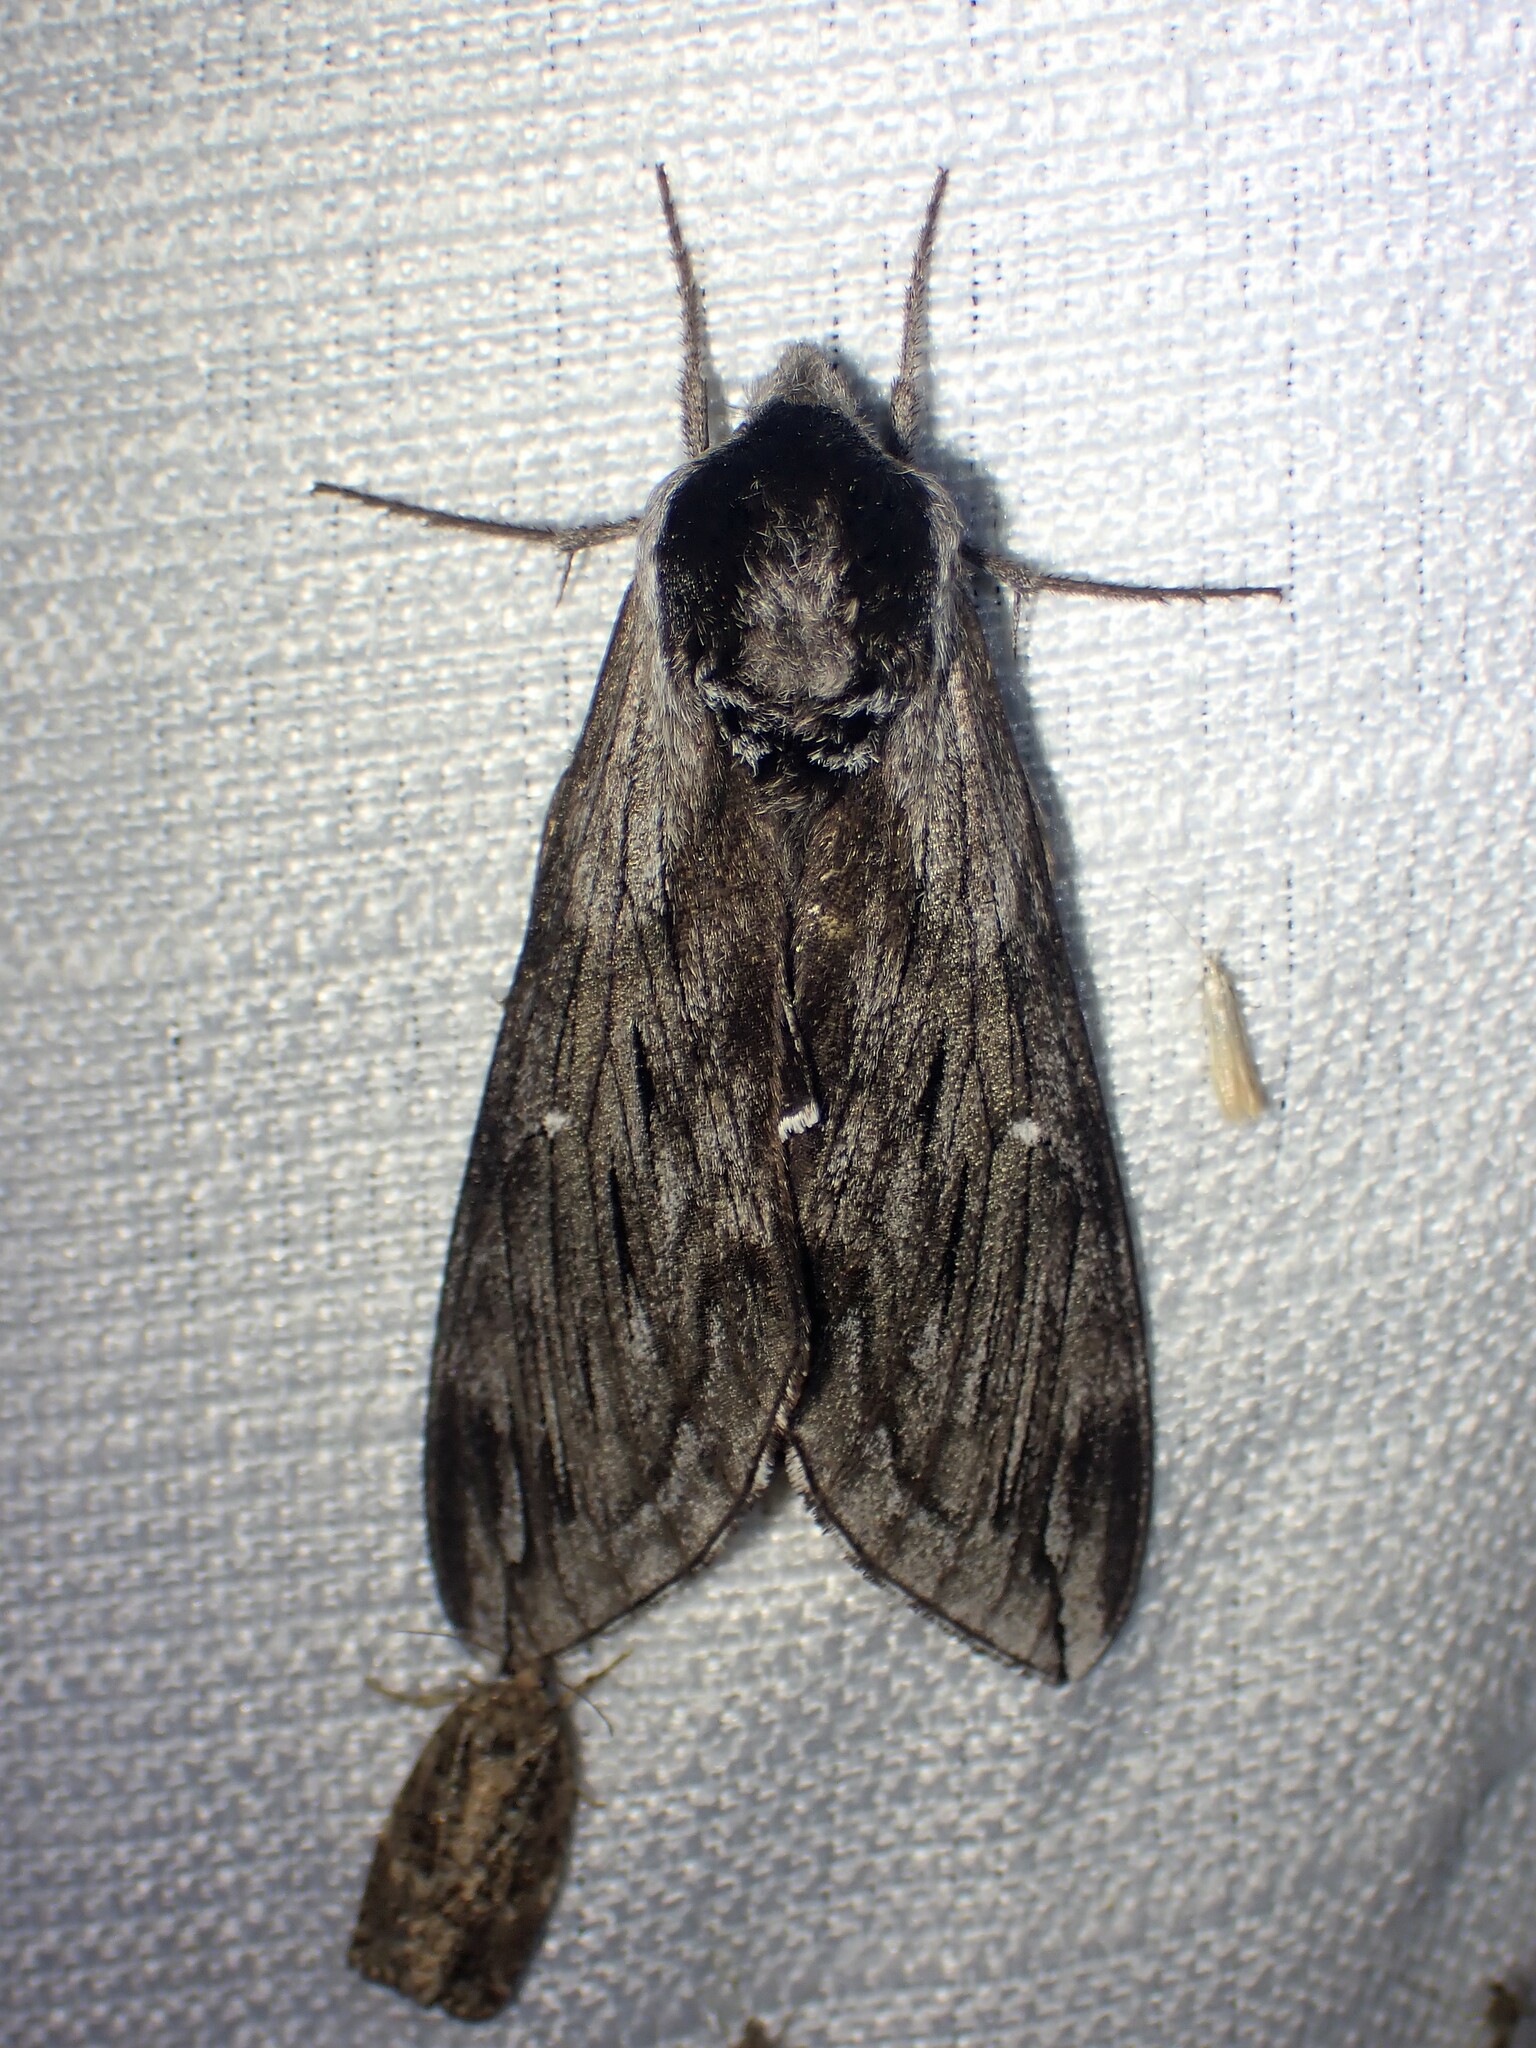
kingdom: Animalia
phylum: Arthropoda
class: Insecta
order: Lepidoptera
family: Sphingidae
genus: Sphinx
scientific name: Sphinx poecila
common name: Northern apple sphinx
